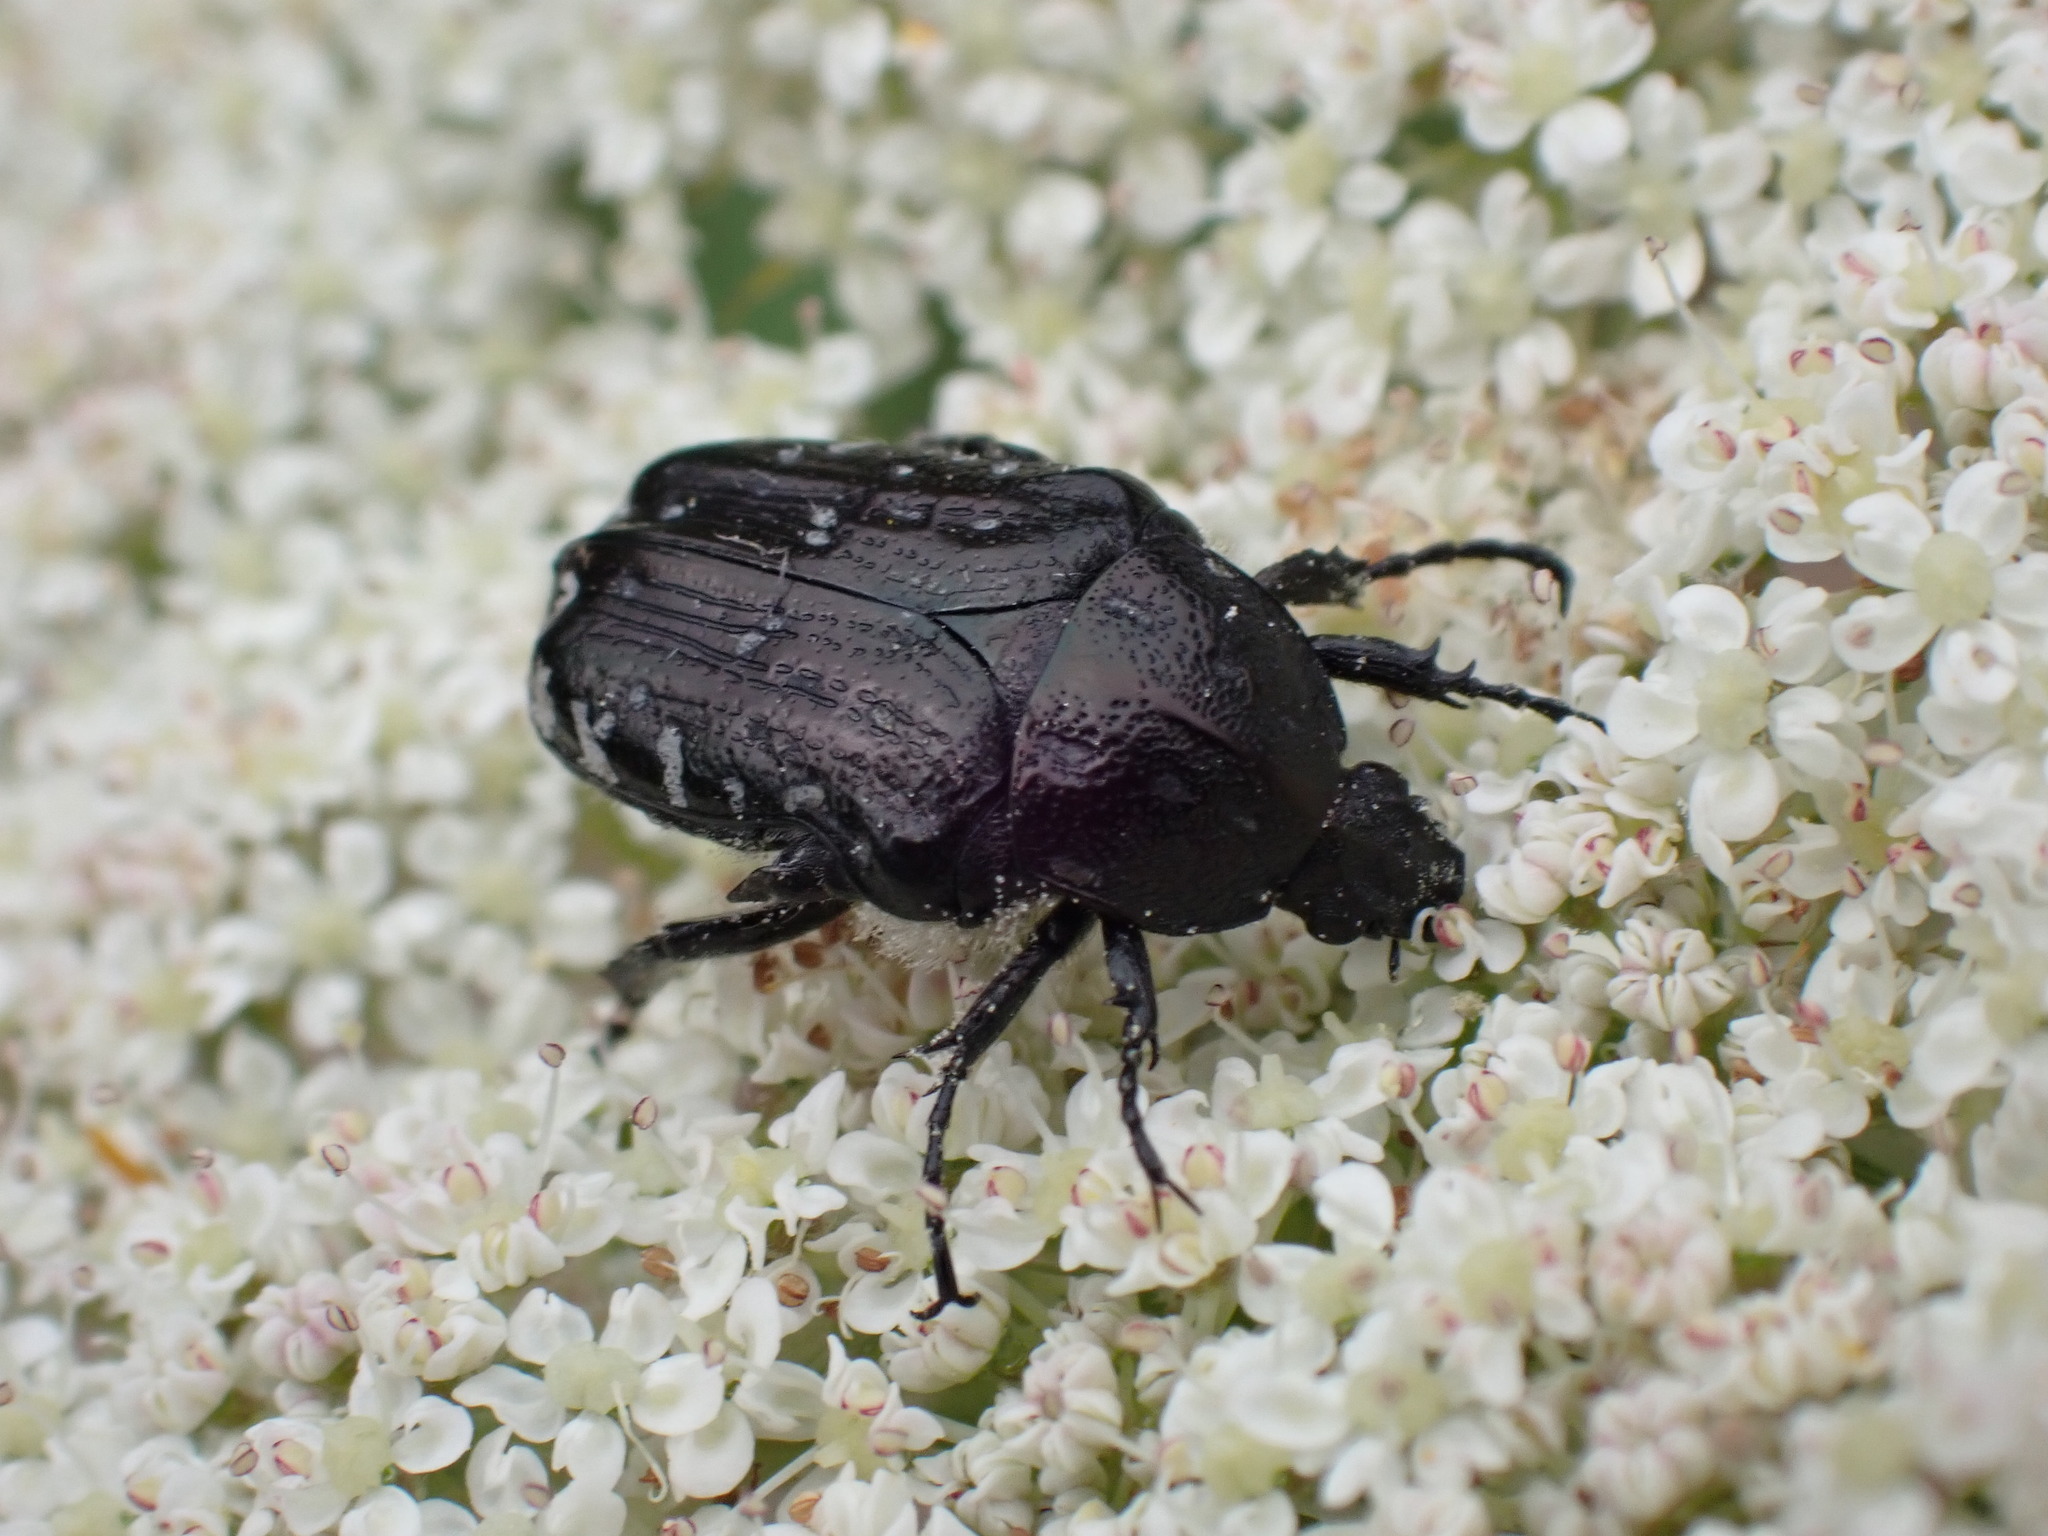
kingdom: Animalia
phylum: Arthropoda
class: Insecta
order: Coleoptera
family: Scarabaeidae
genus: Oxythyrea
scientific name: Oxythyrea funesta
